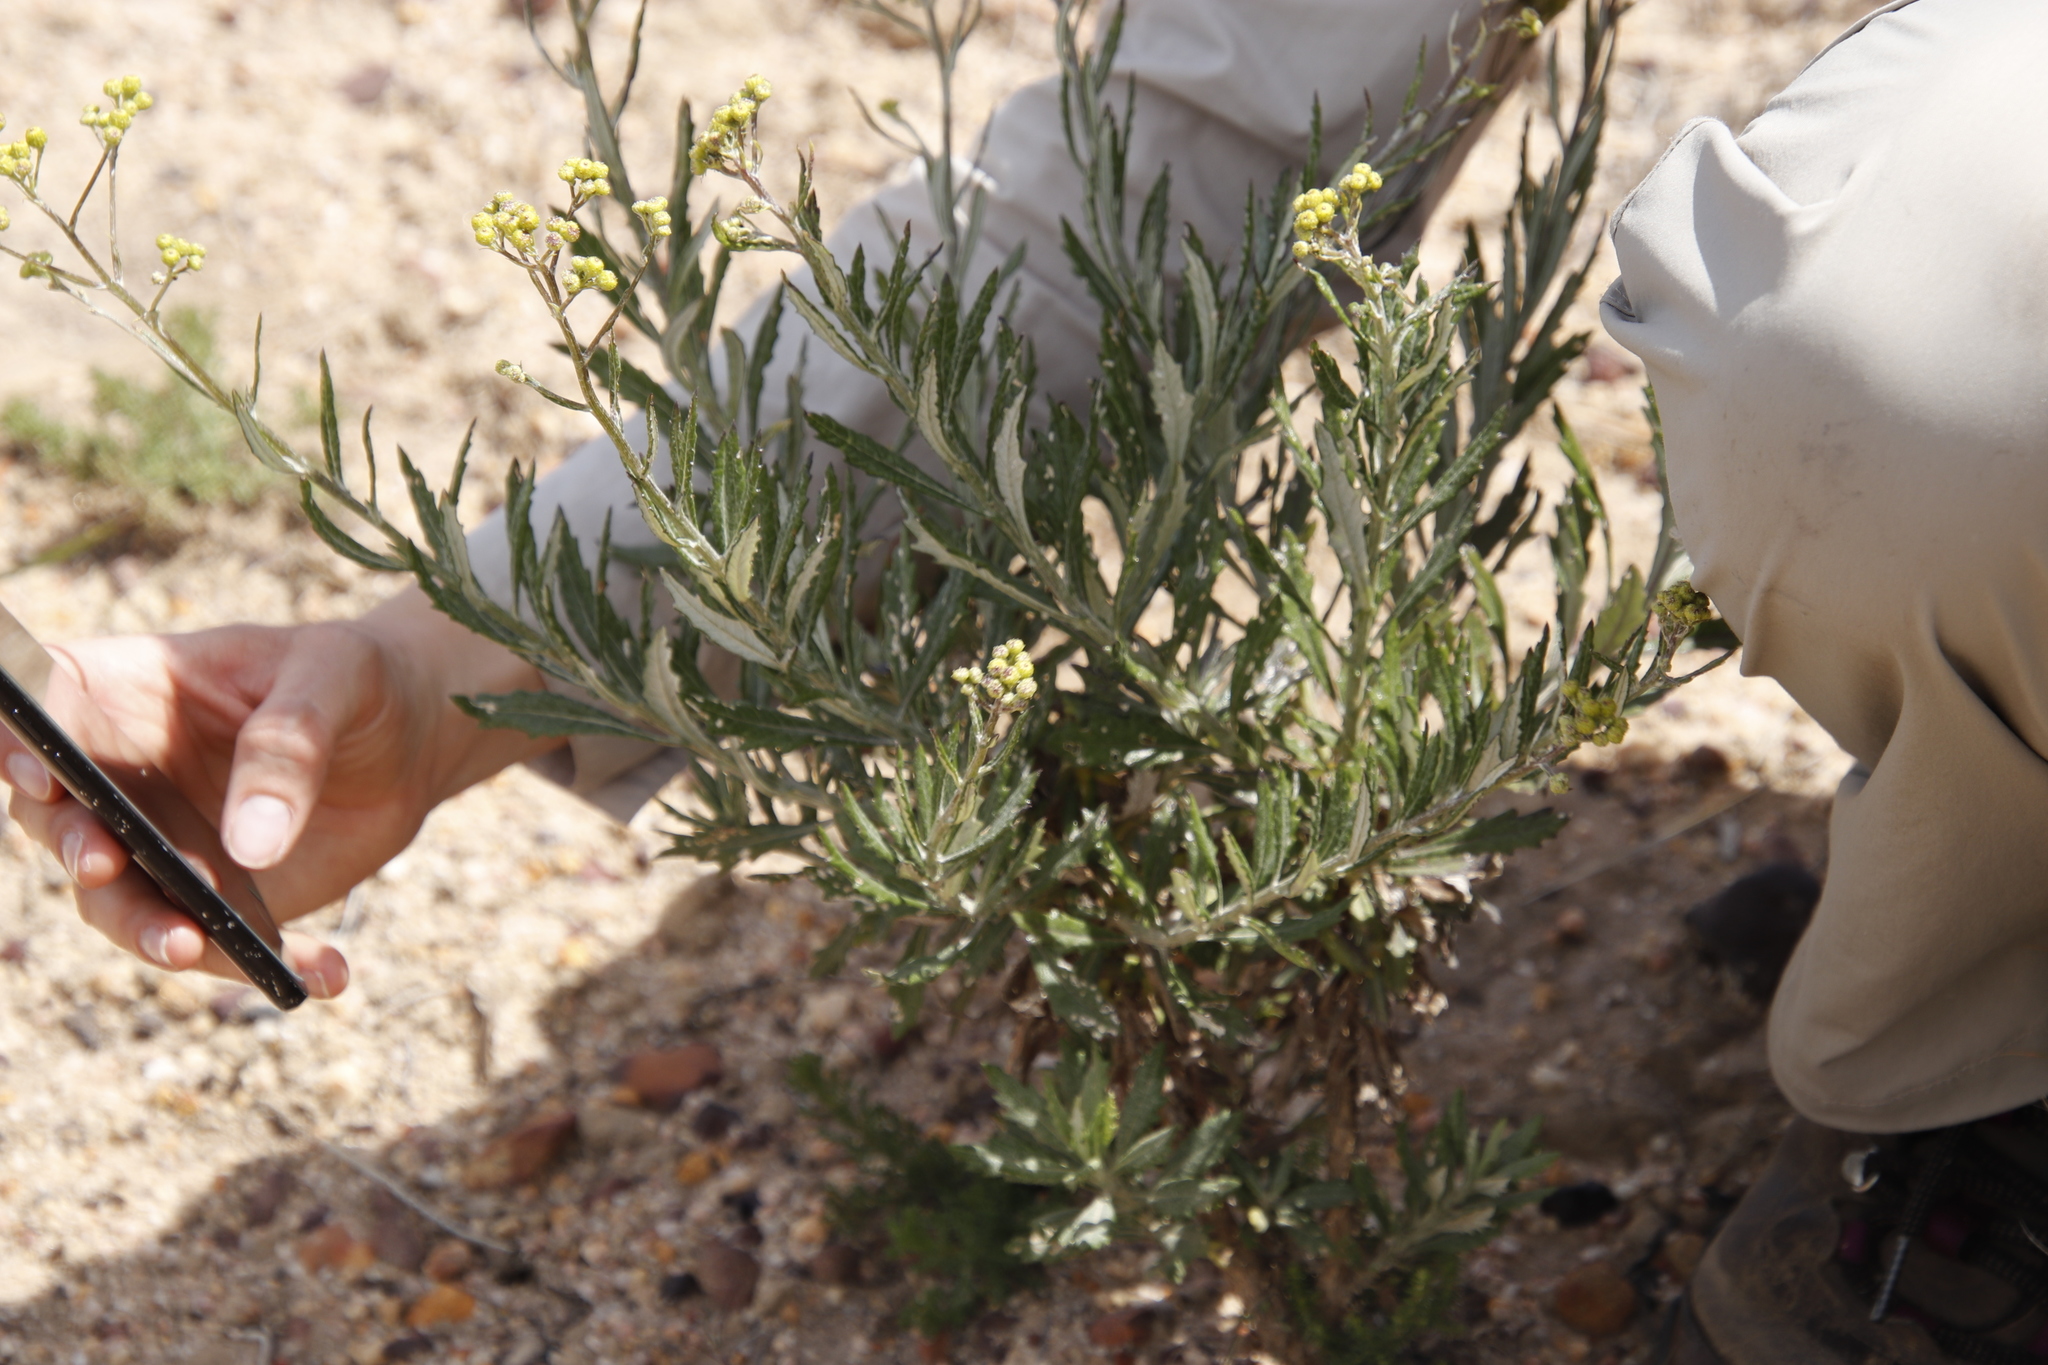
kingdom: Plantae
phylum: Tracheophyta
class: Magnoliopsida
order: Asterales
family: Asteraceae
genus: Senecio
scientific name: Senecio pterophorus
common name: Shoddy ragwort
